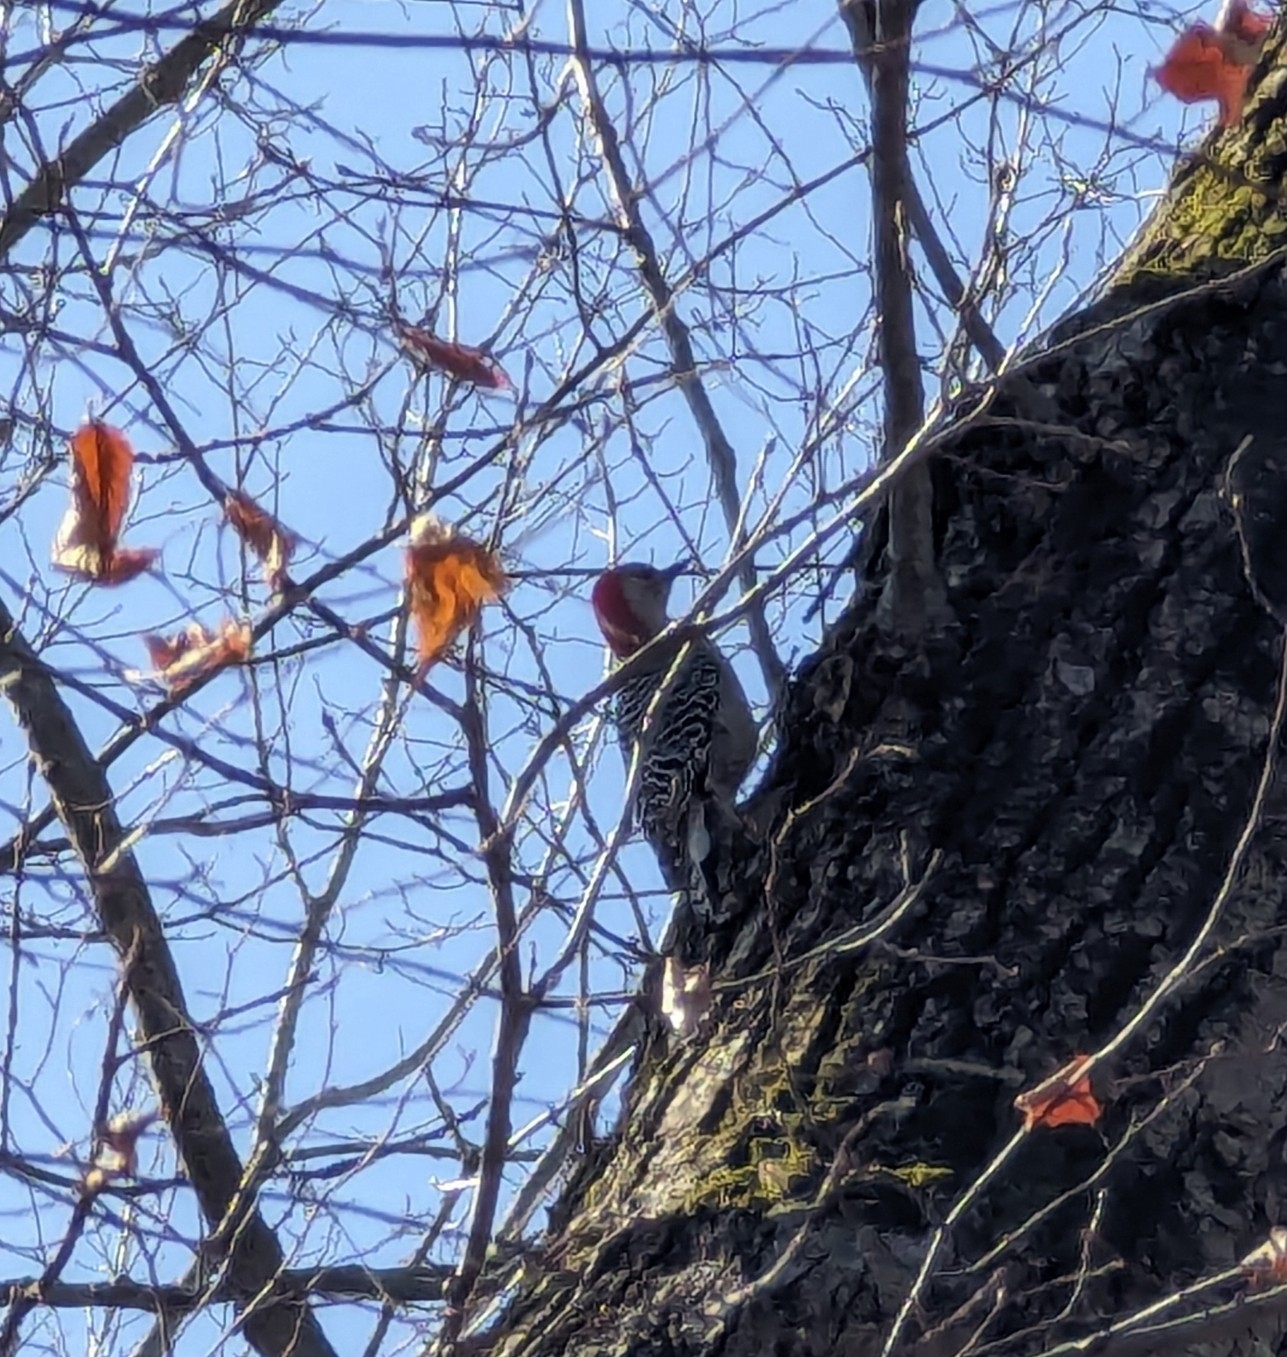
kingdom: Animalia
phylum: Chordata
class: Aves
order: Piciformes
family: Picidae
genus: Melanerpes
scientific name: Melanerpes carolinus
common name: Red-bellied woodpecker
